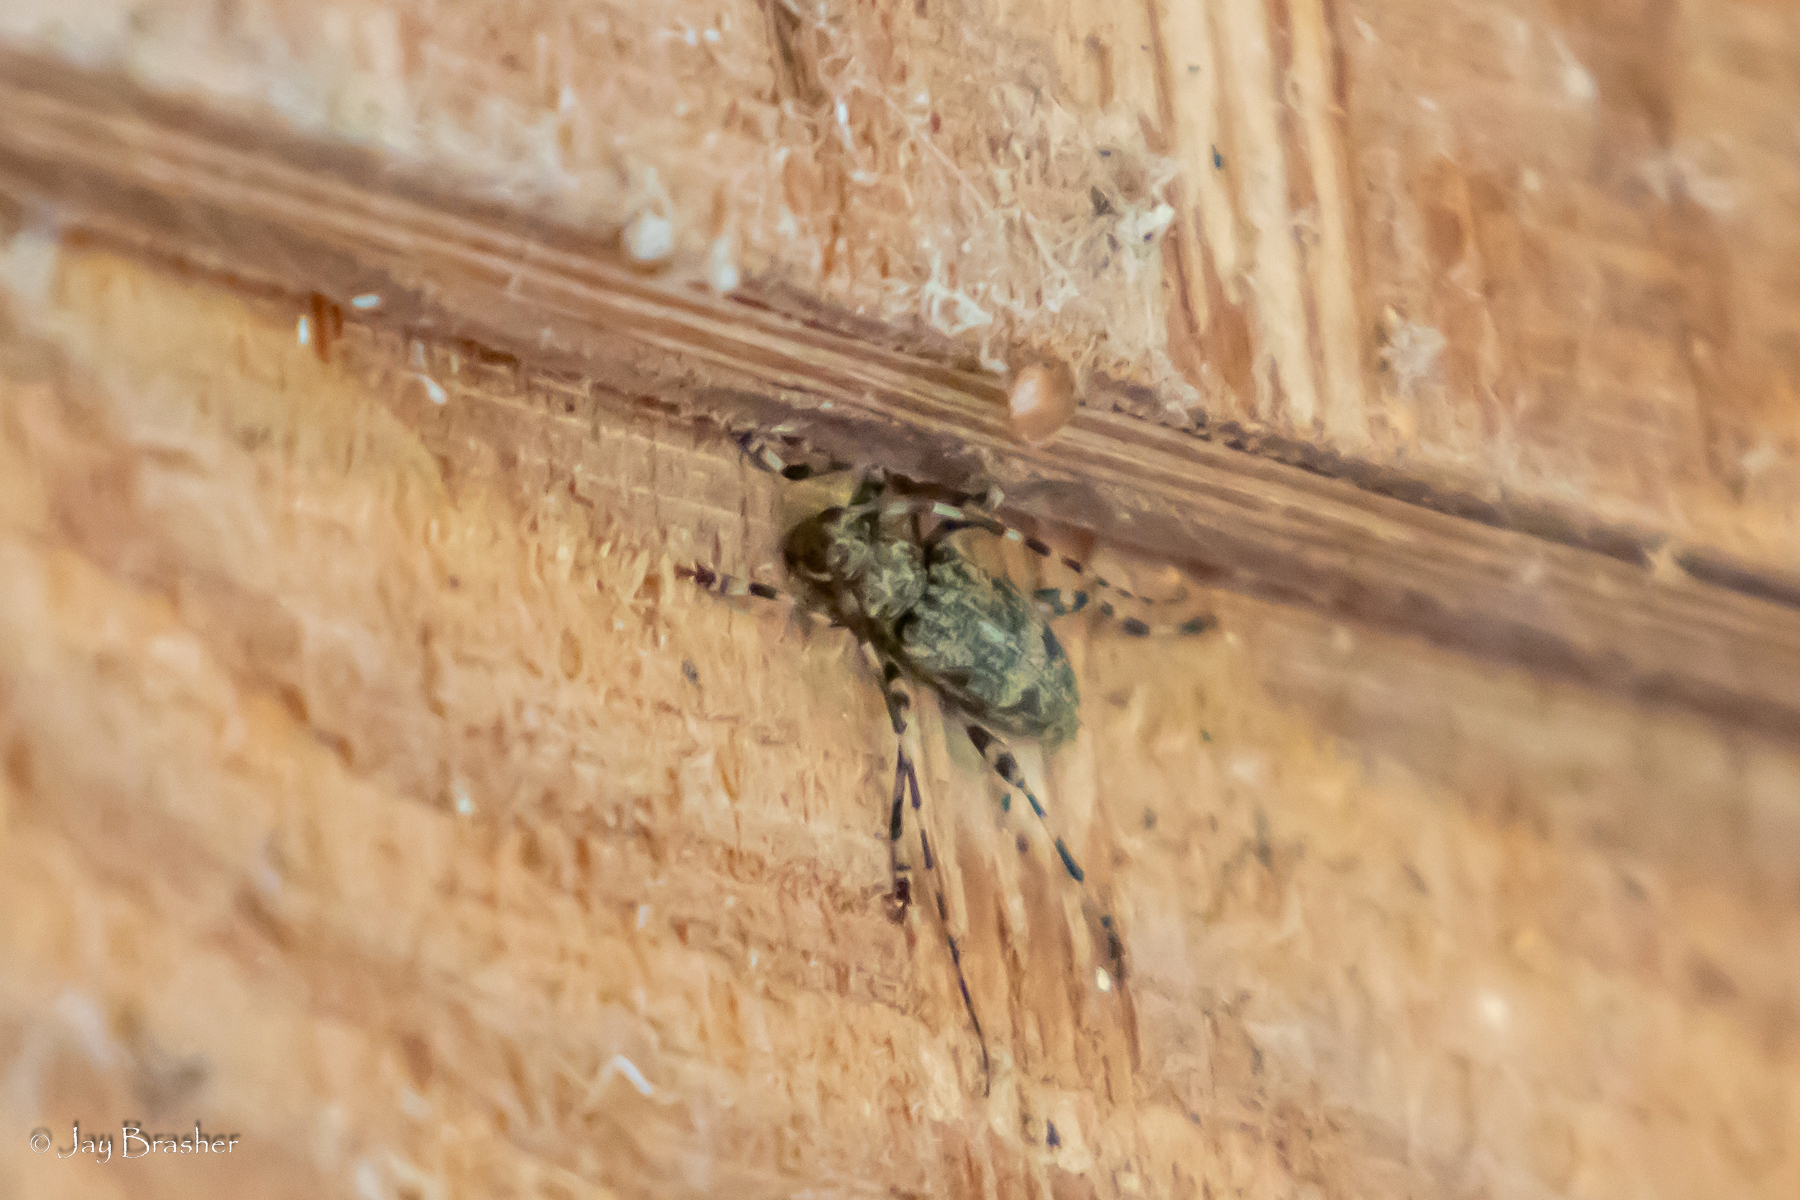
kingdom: Animalia
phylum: Arthropoda
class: Insecta
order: Coleoptera
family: Cerambycidae
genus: Graphisurus
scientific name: Graphisurus fasciatus
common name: Banded graphisurus
